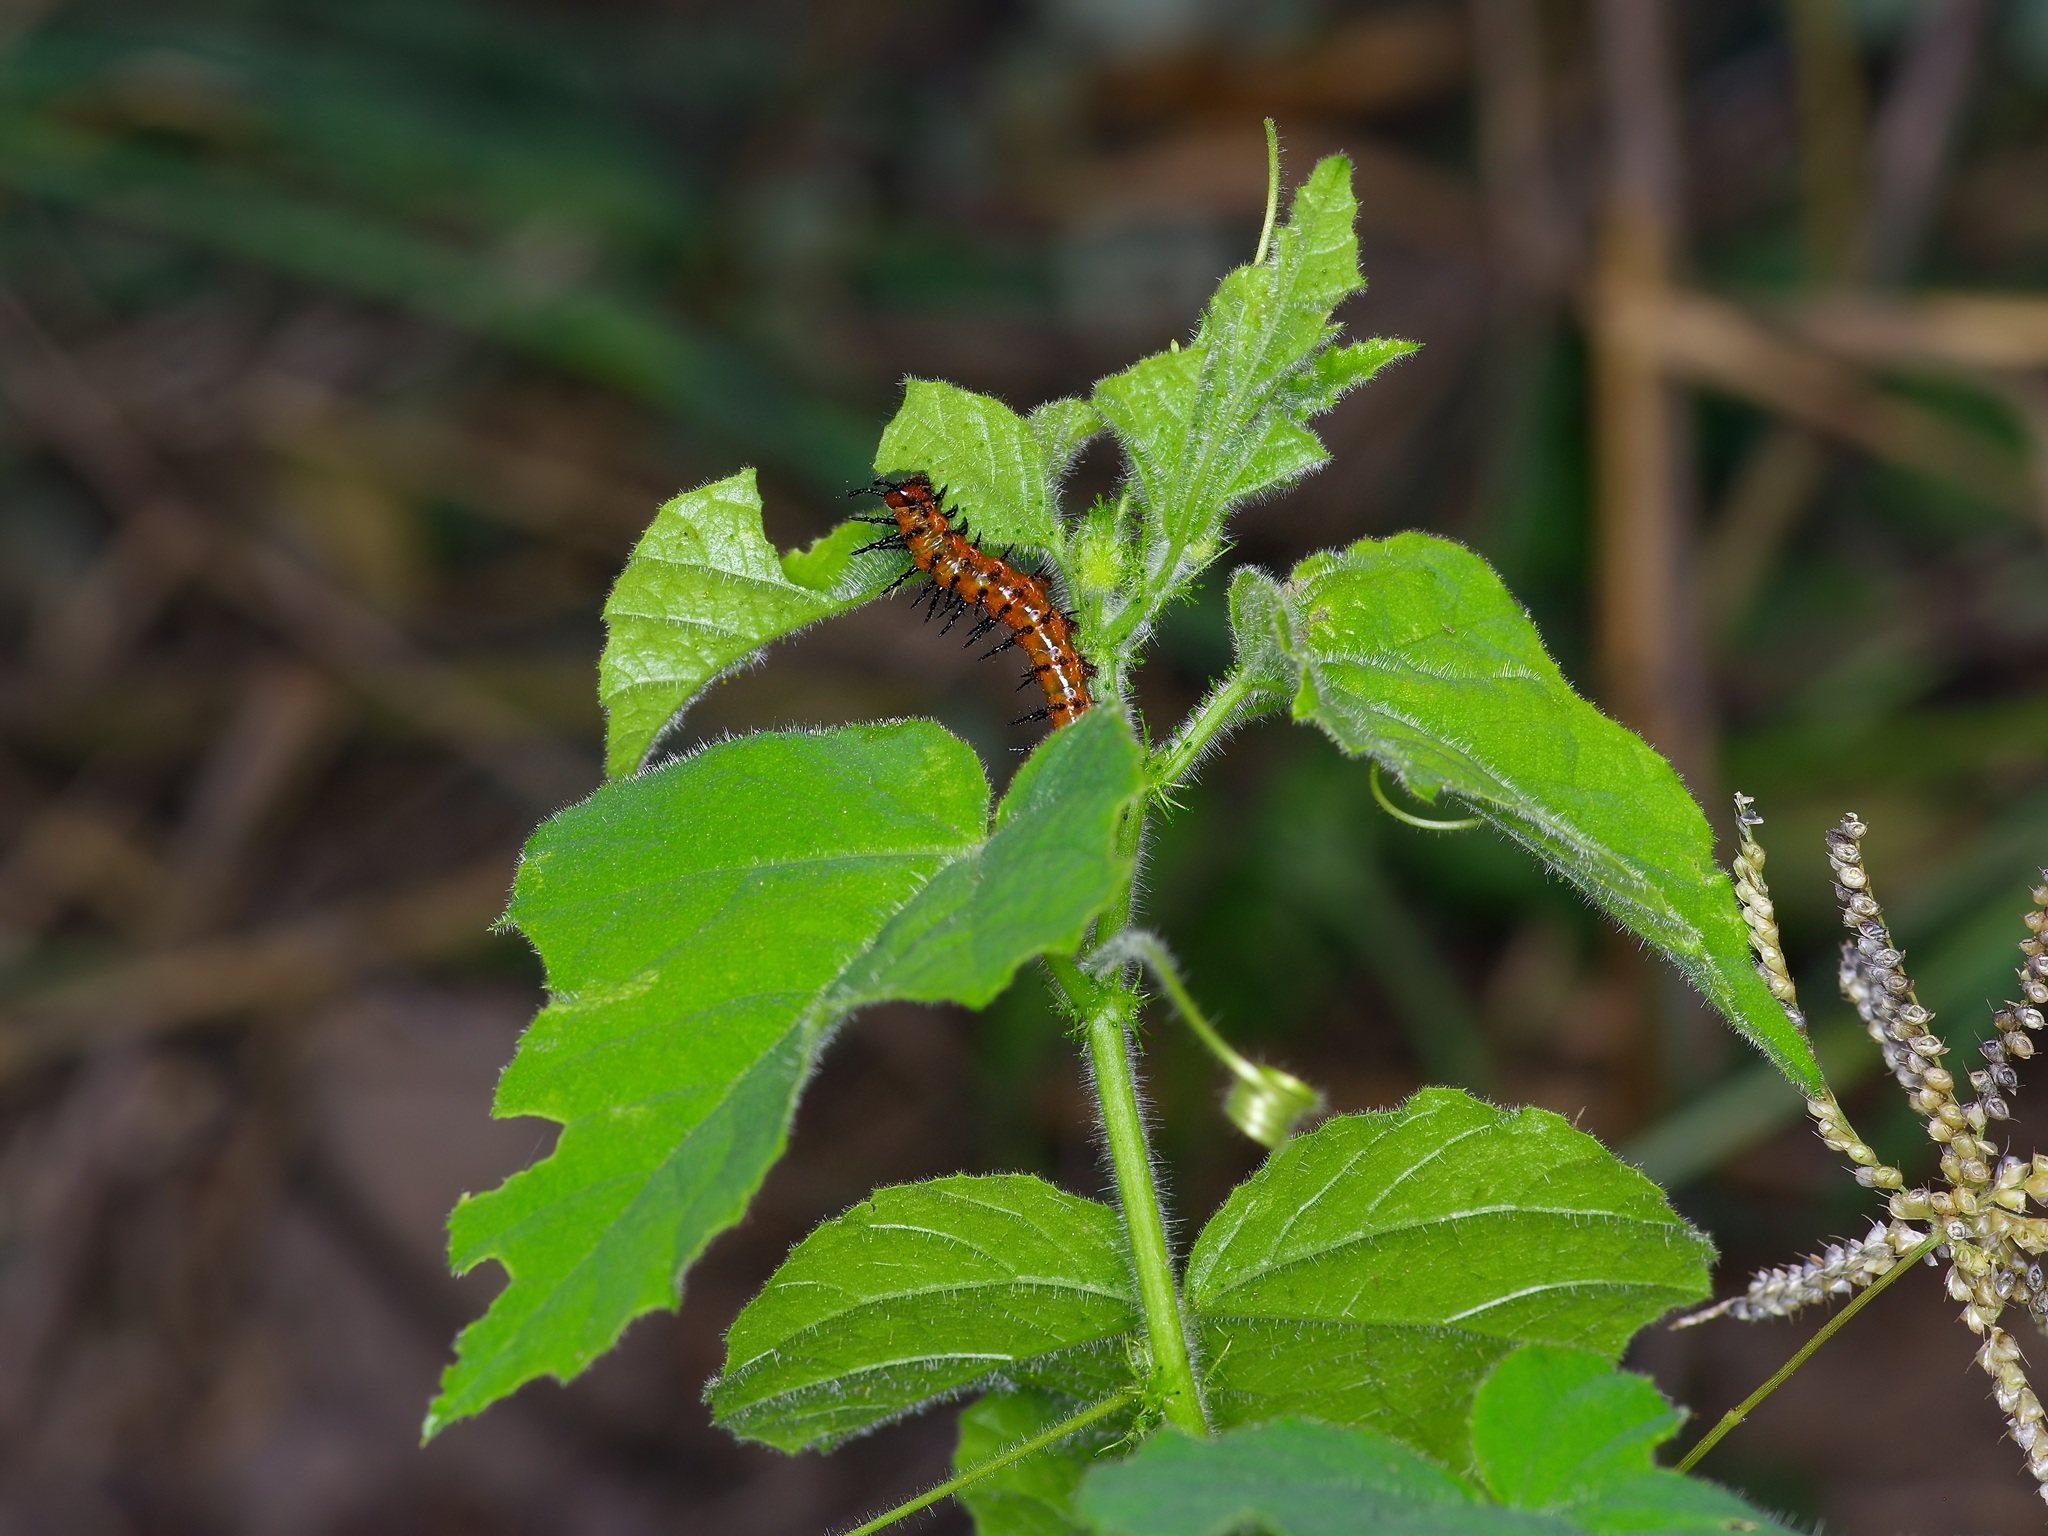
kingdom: Animalia
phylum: Arthropoda
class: Insecta
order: Lepidoptera
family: Nymphalidae
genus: Dione
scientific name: Dione vanillae
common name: Gulf fritillary
